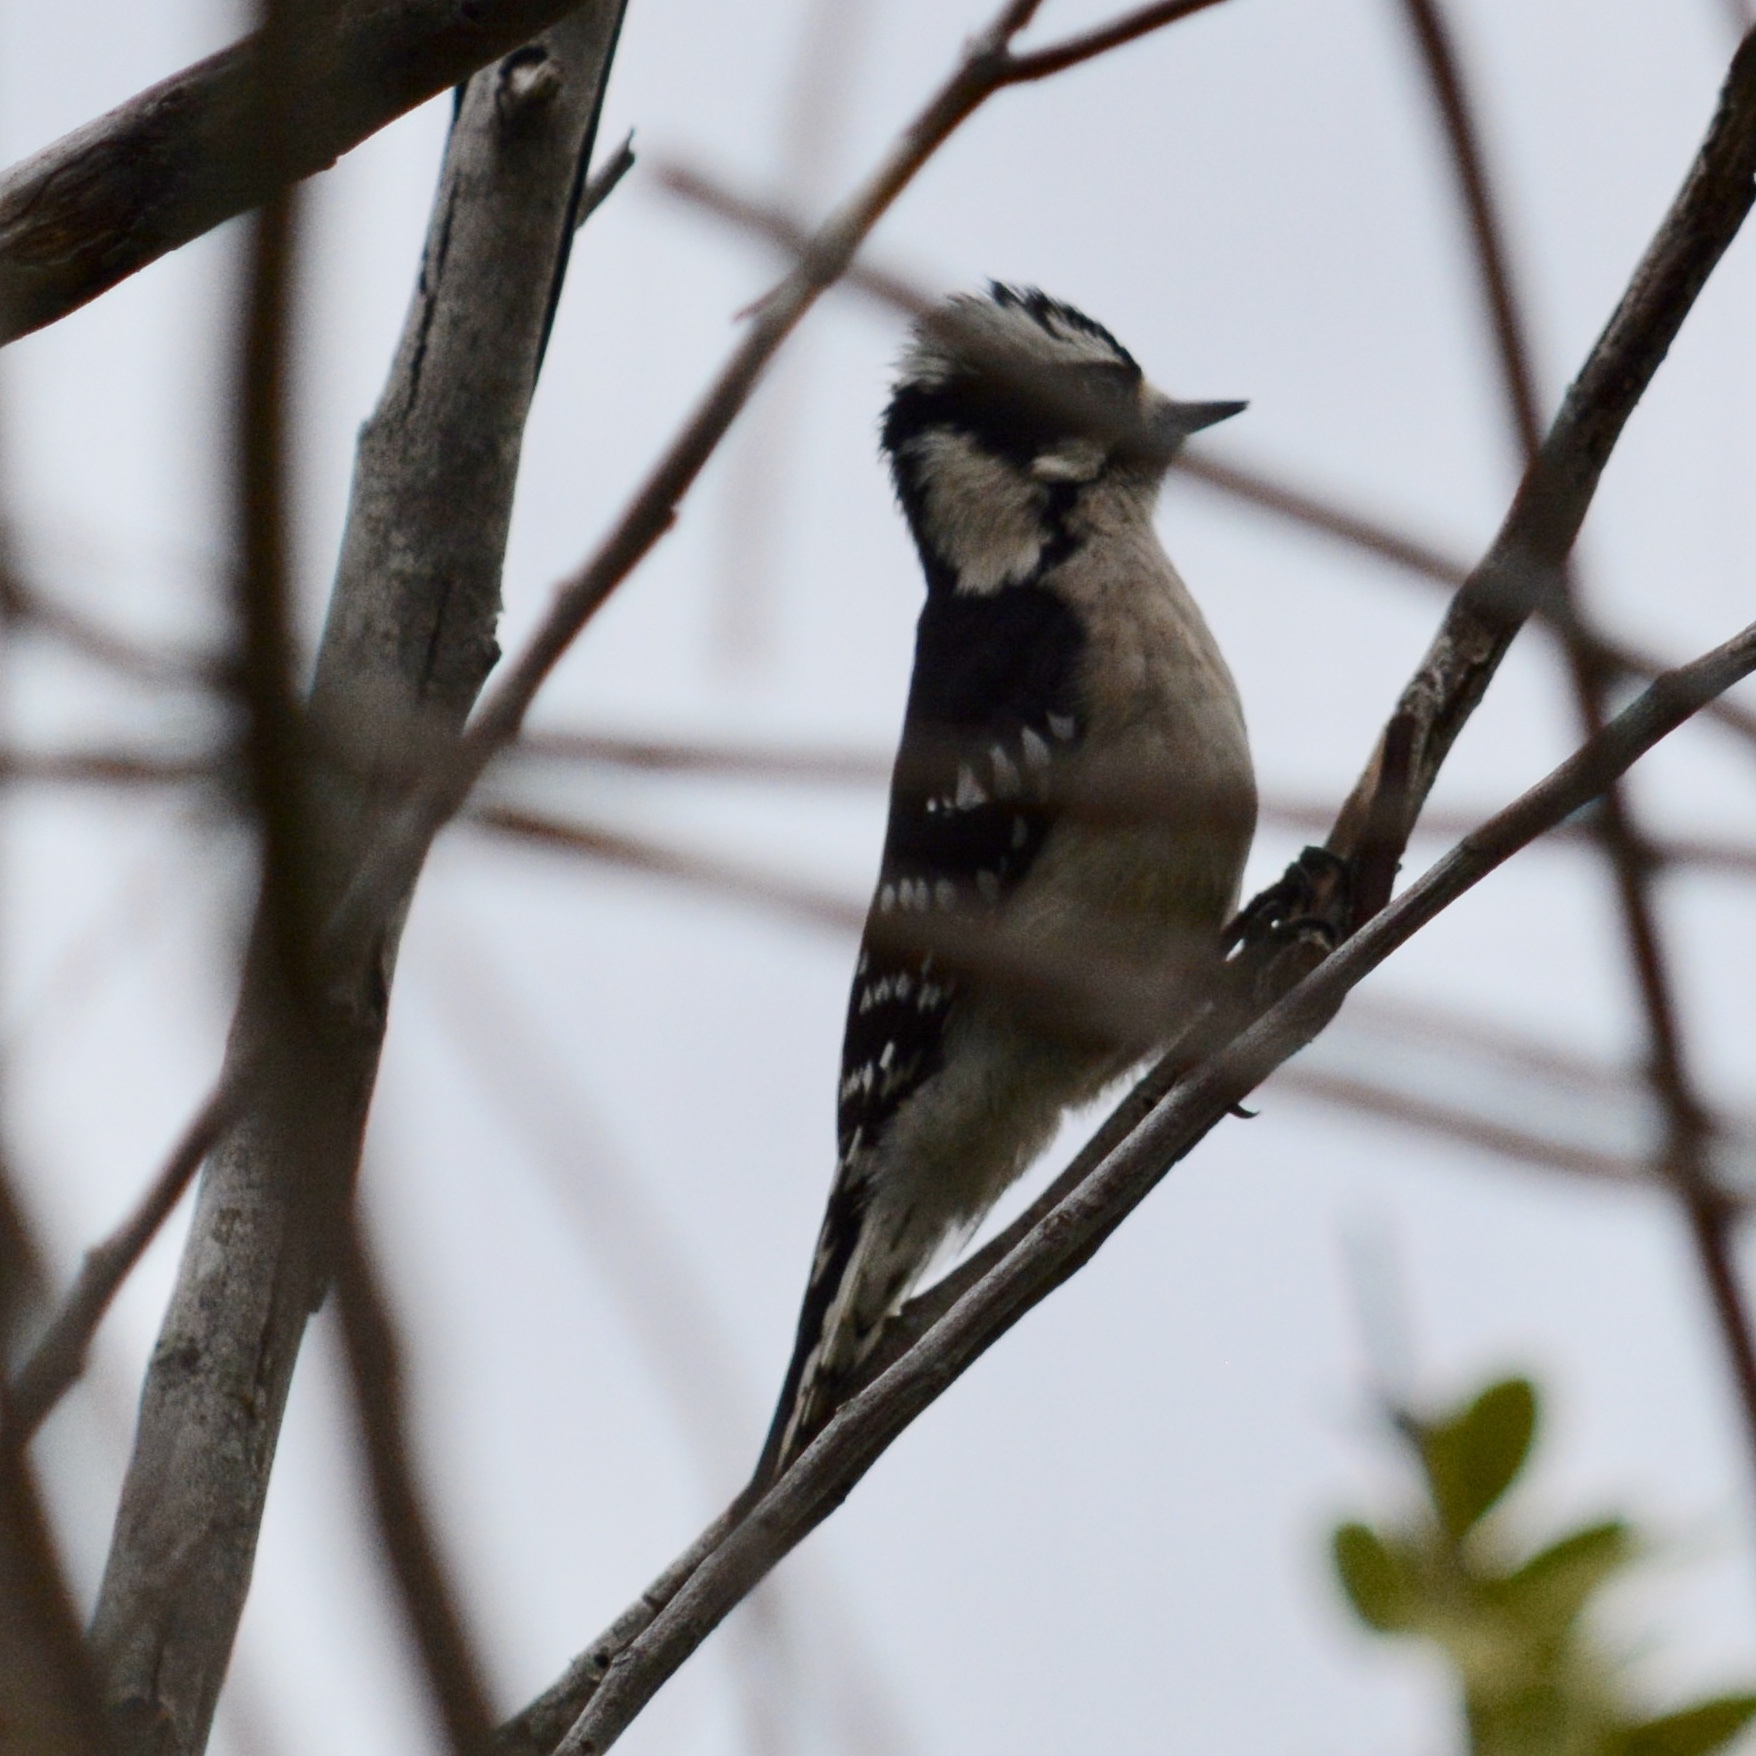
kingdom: Animalia
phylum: Chordata
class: Aves
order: Piciformes
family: Picidae
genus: Dryobates
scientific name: Dryobates pubescens
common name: Downy woodpecker
